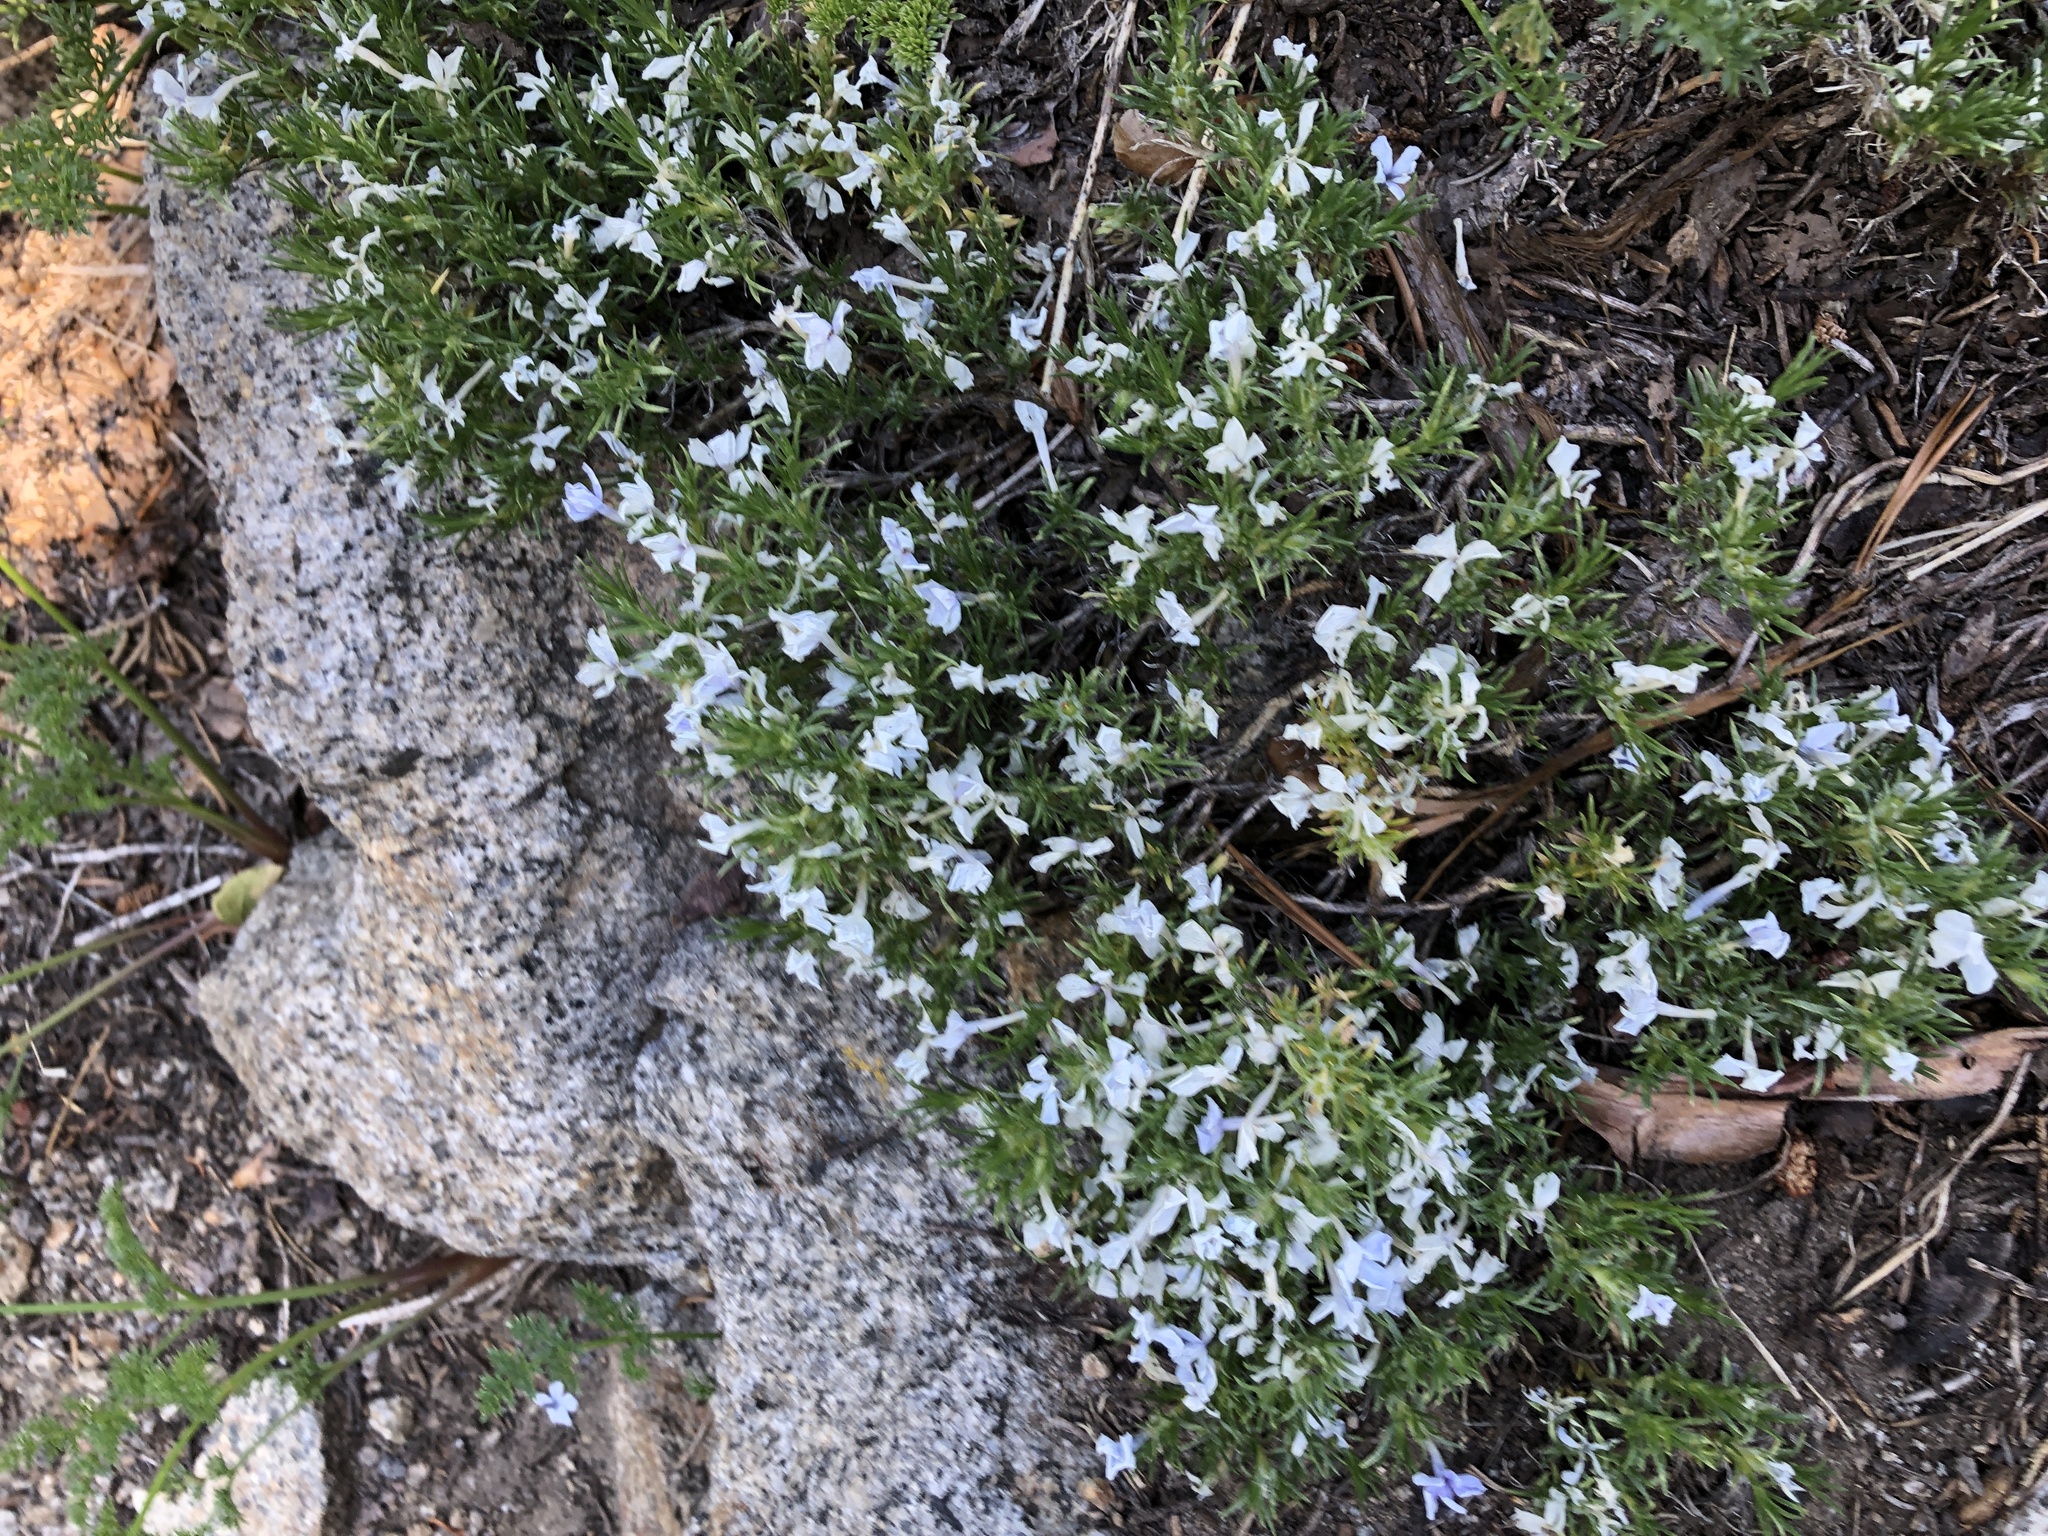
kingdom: Plantae
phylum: Tracheophyta
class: Magnoliopsida
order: Ericales
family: Polemoniaceae
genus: Phlox
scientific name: Phlox diffusa
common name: Mat phlox
